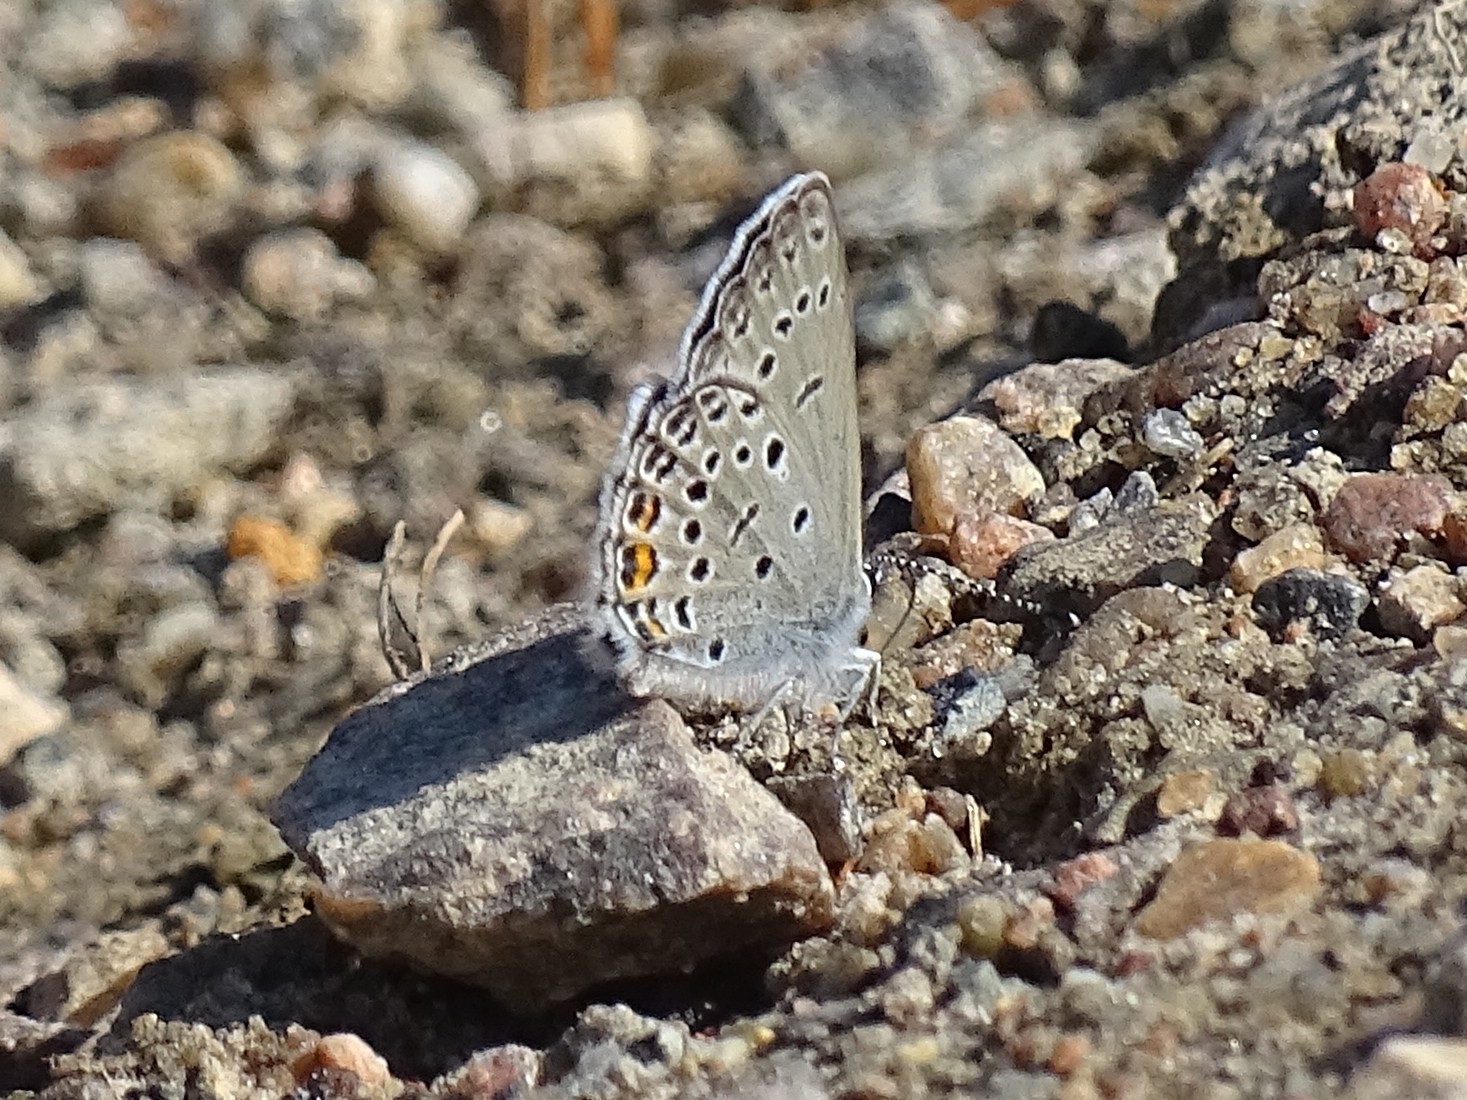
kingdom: Animalia
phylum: Arthropoda
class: Insecta
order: Lepidoptera
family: Lycaenidae
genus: Vacciniina
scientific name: Vacciniina optilete
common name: Cranberry blue
